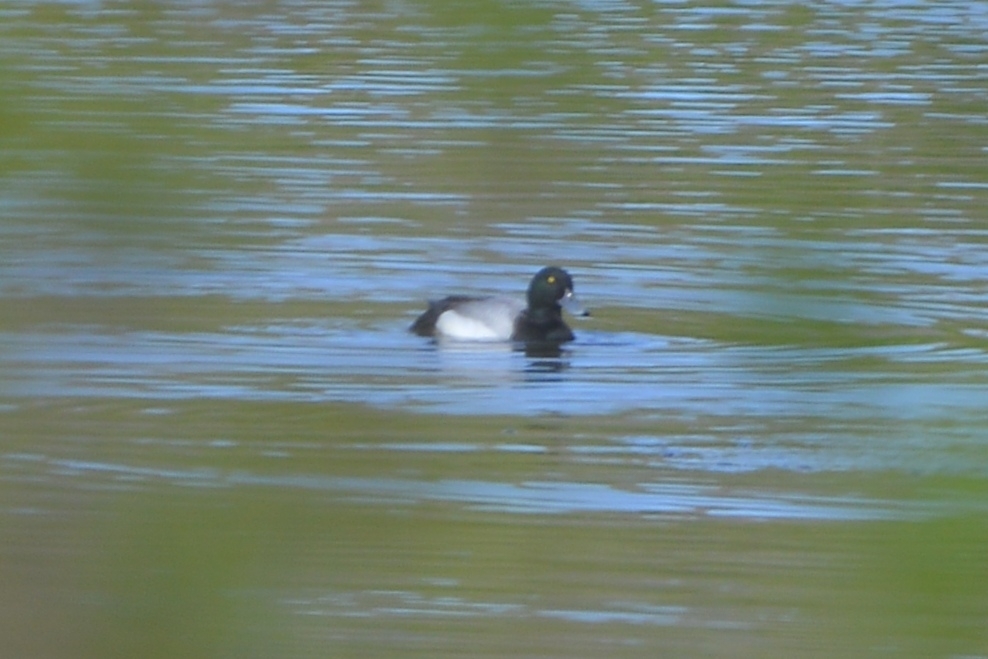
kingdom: Animalia
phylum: Chordata
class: Aves
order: Anseriformes
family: Anatidae
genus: Aythya
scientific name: Aythya marila
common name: Greater scaup
